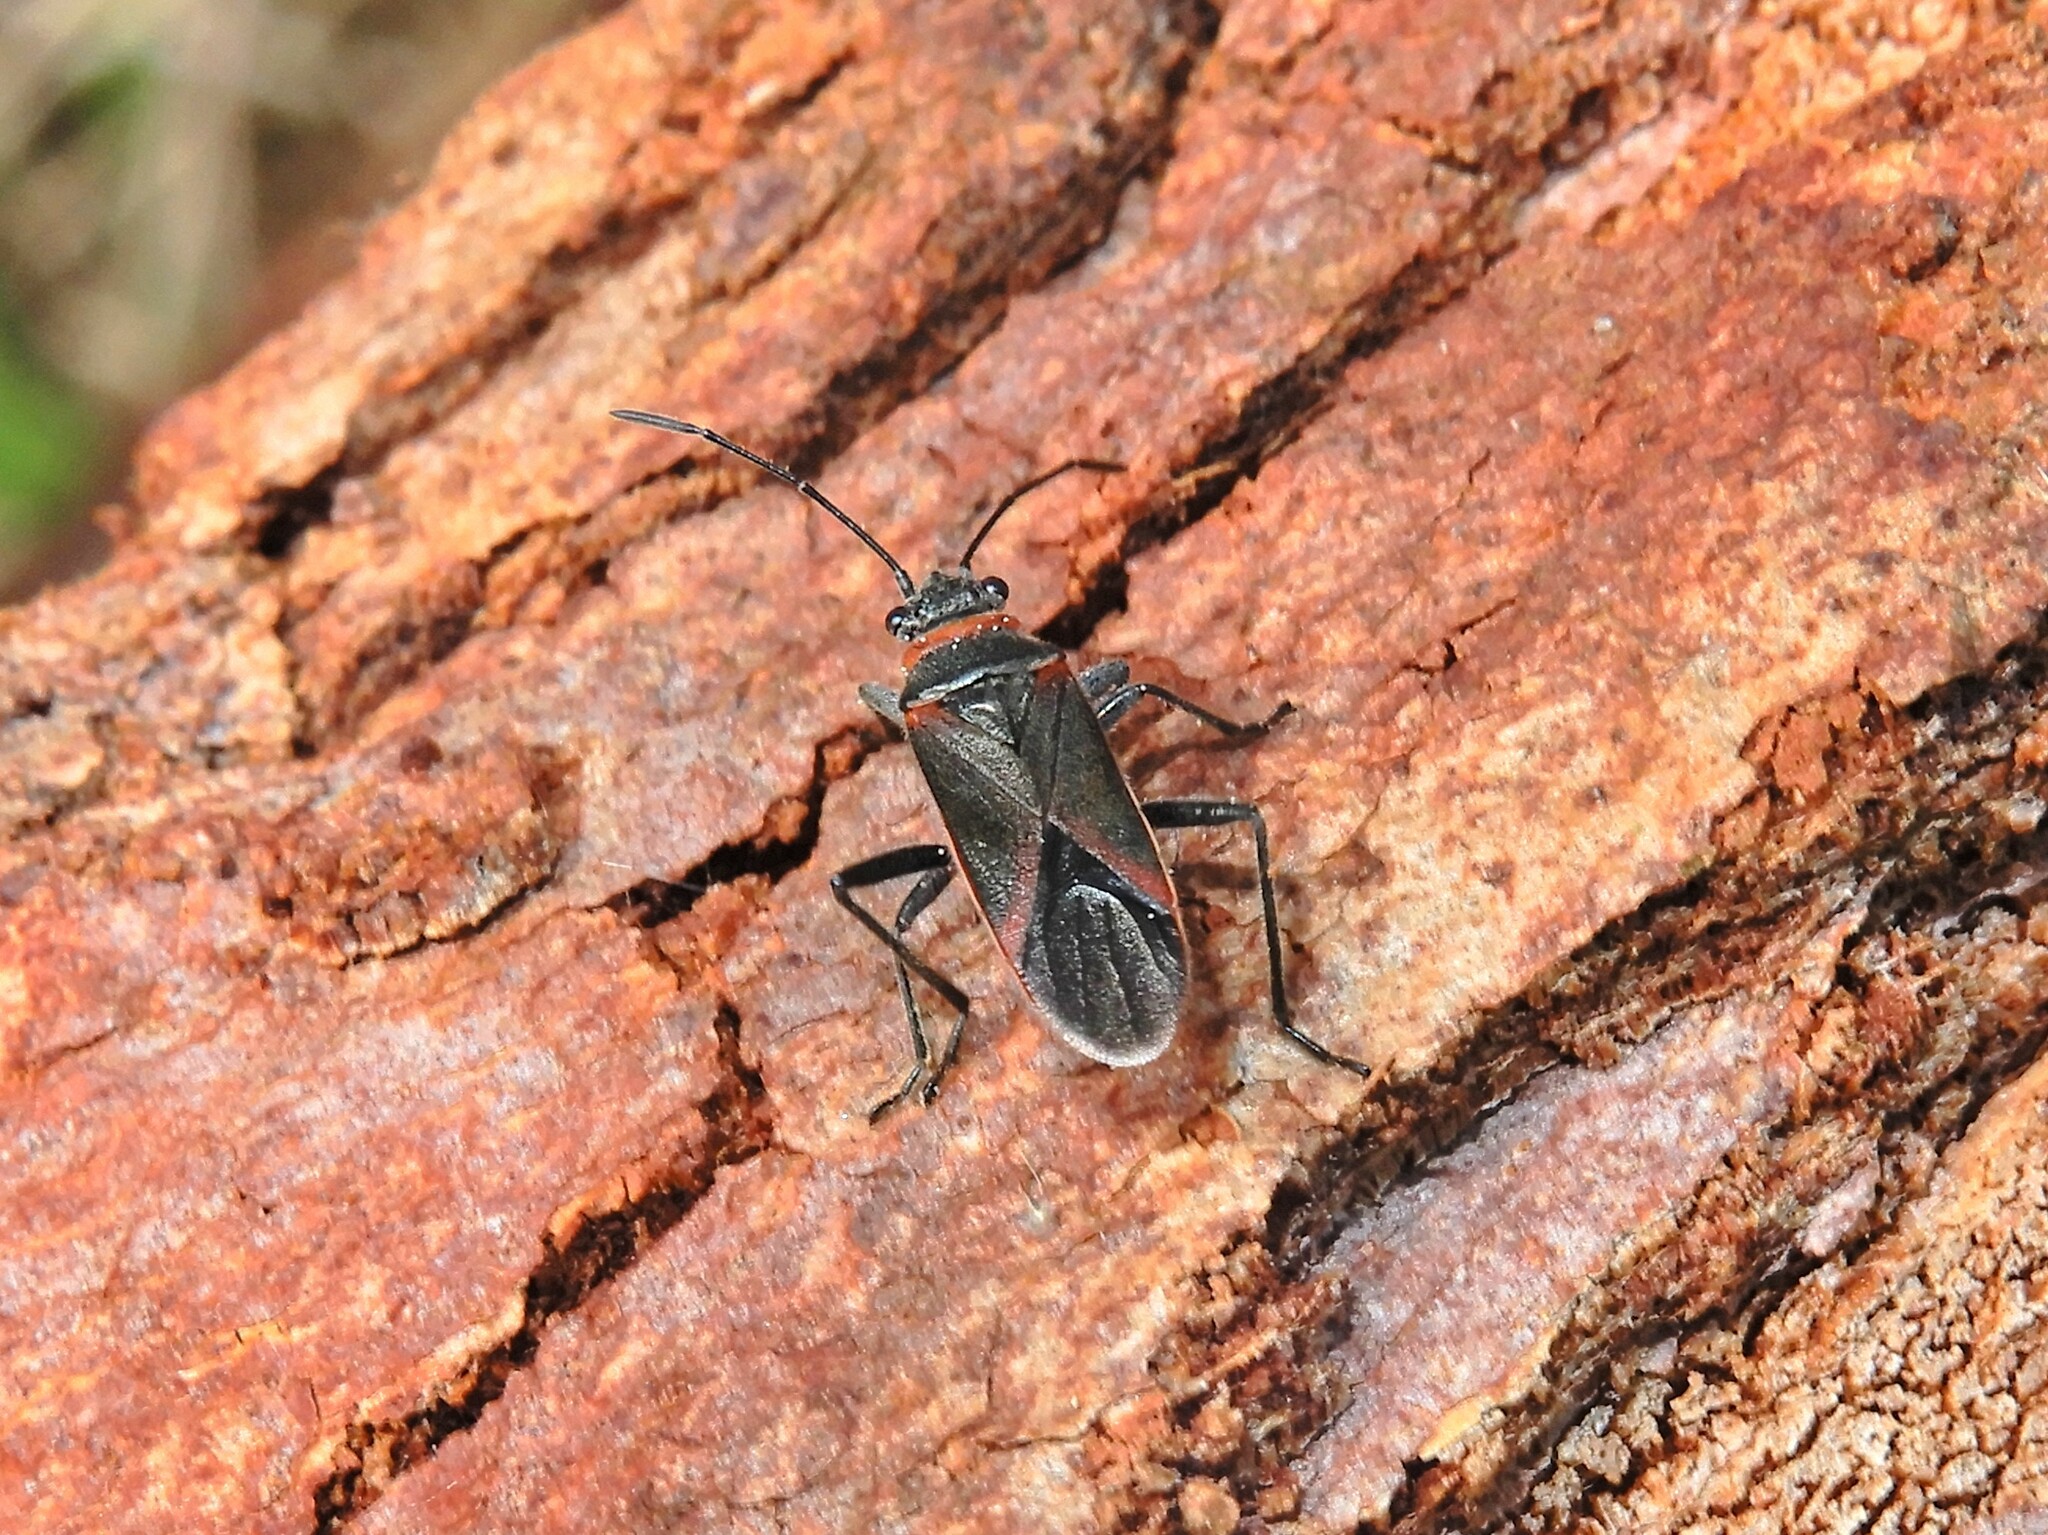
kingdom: Animalia
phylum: Arthropoda
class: Insecta
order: Hemiptera
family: Lygaeidae
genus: Arocatus
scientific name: Arocatus rusticus
